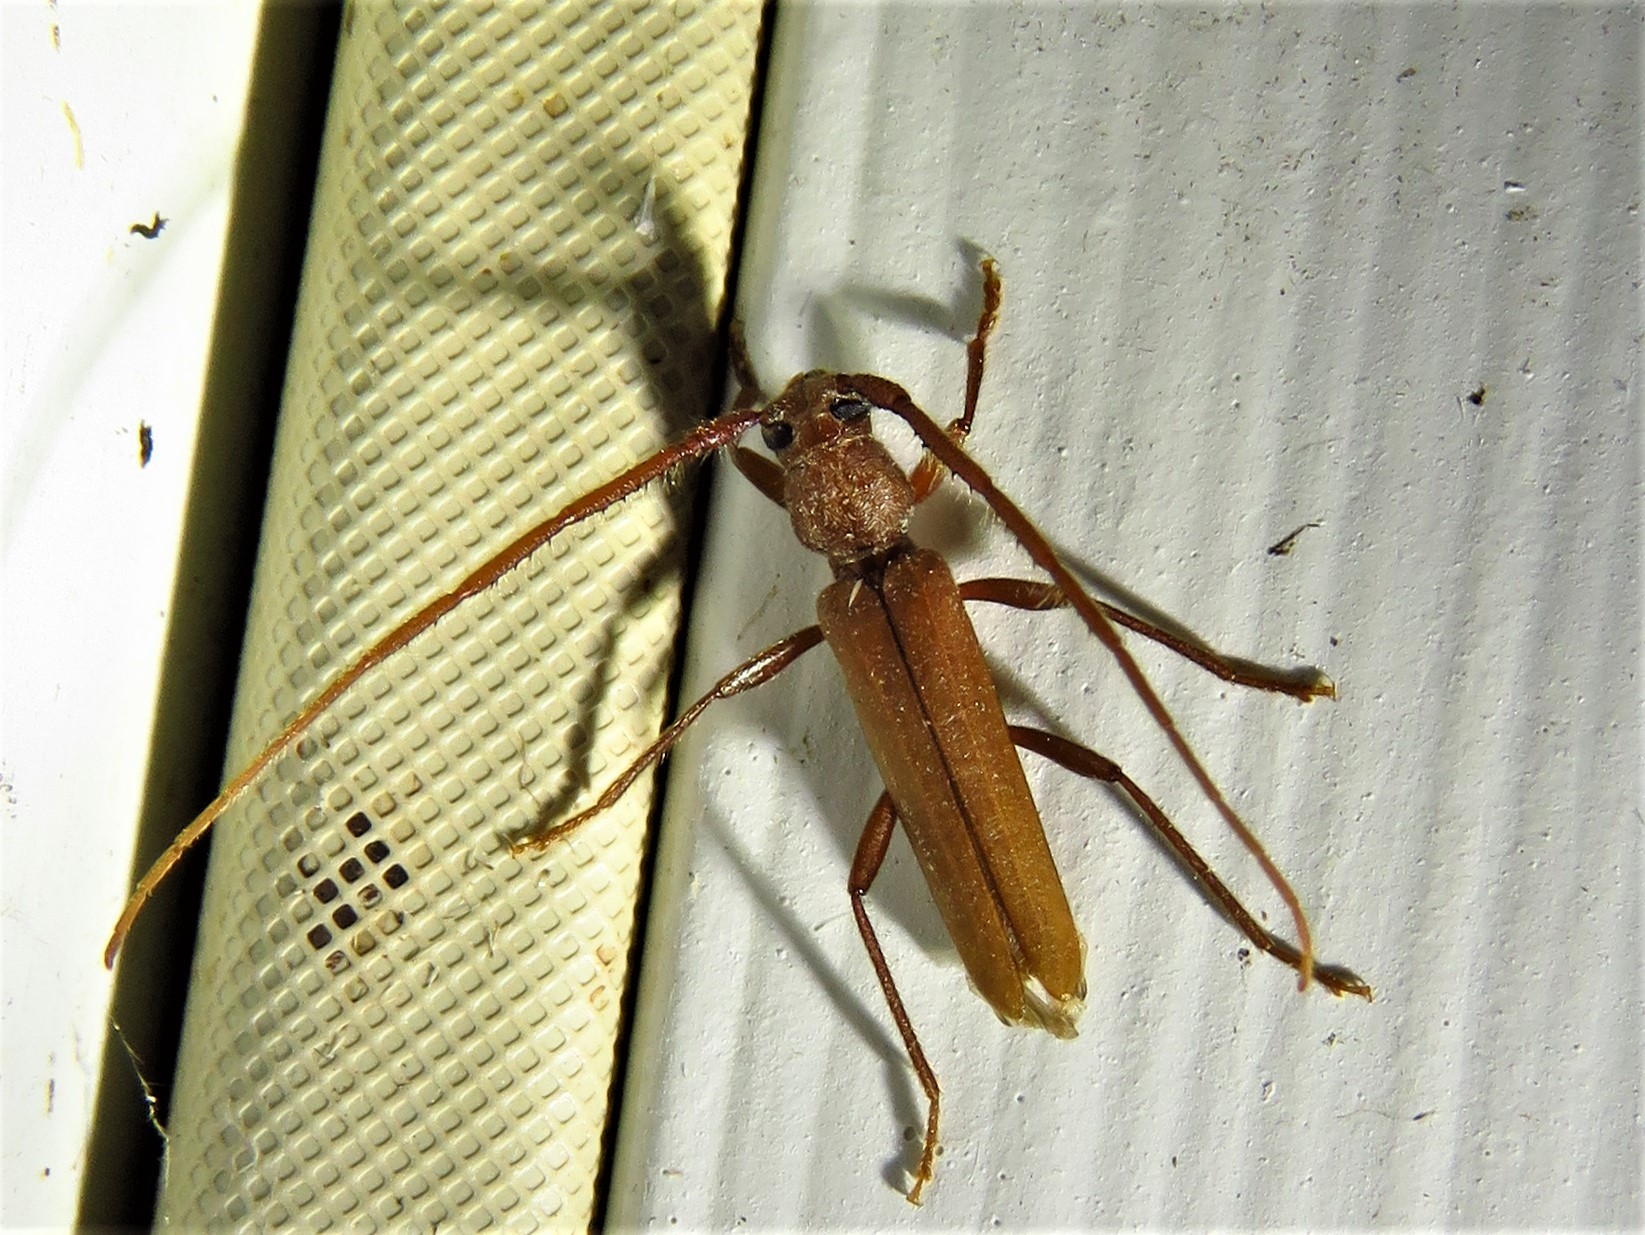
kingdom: Animalia
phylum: Arthropoda
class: Insecta
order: Coleoptera
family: Cerambycidae
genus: Oeme
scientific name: Oeme rigida
